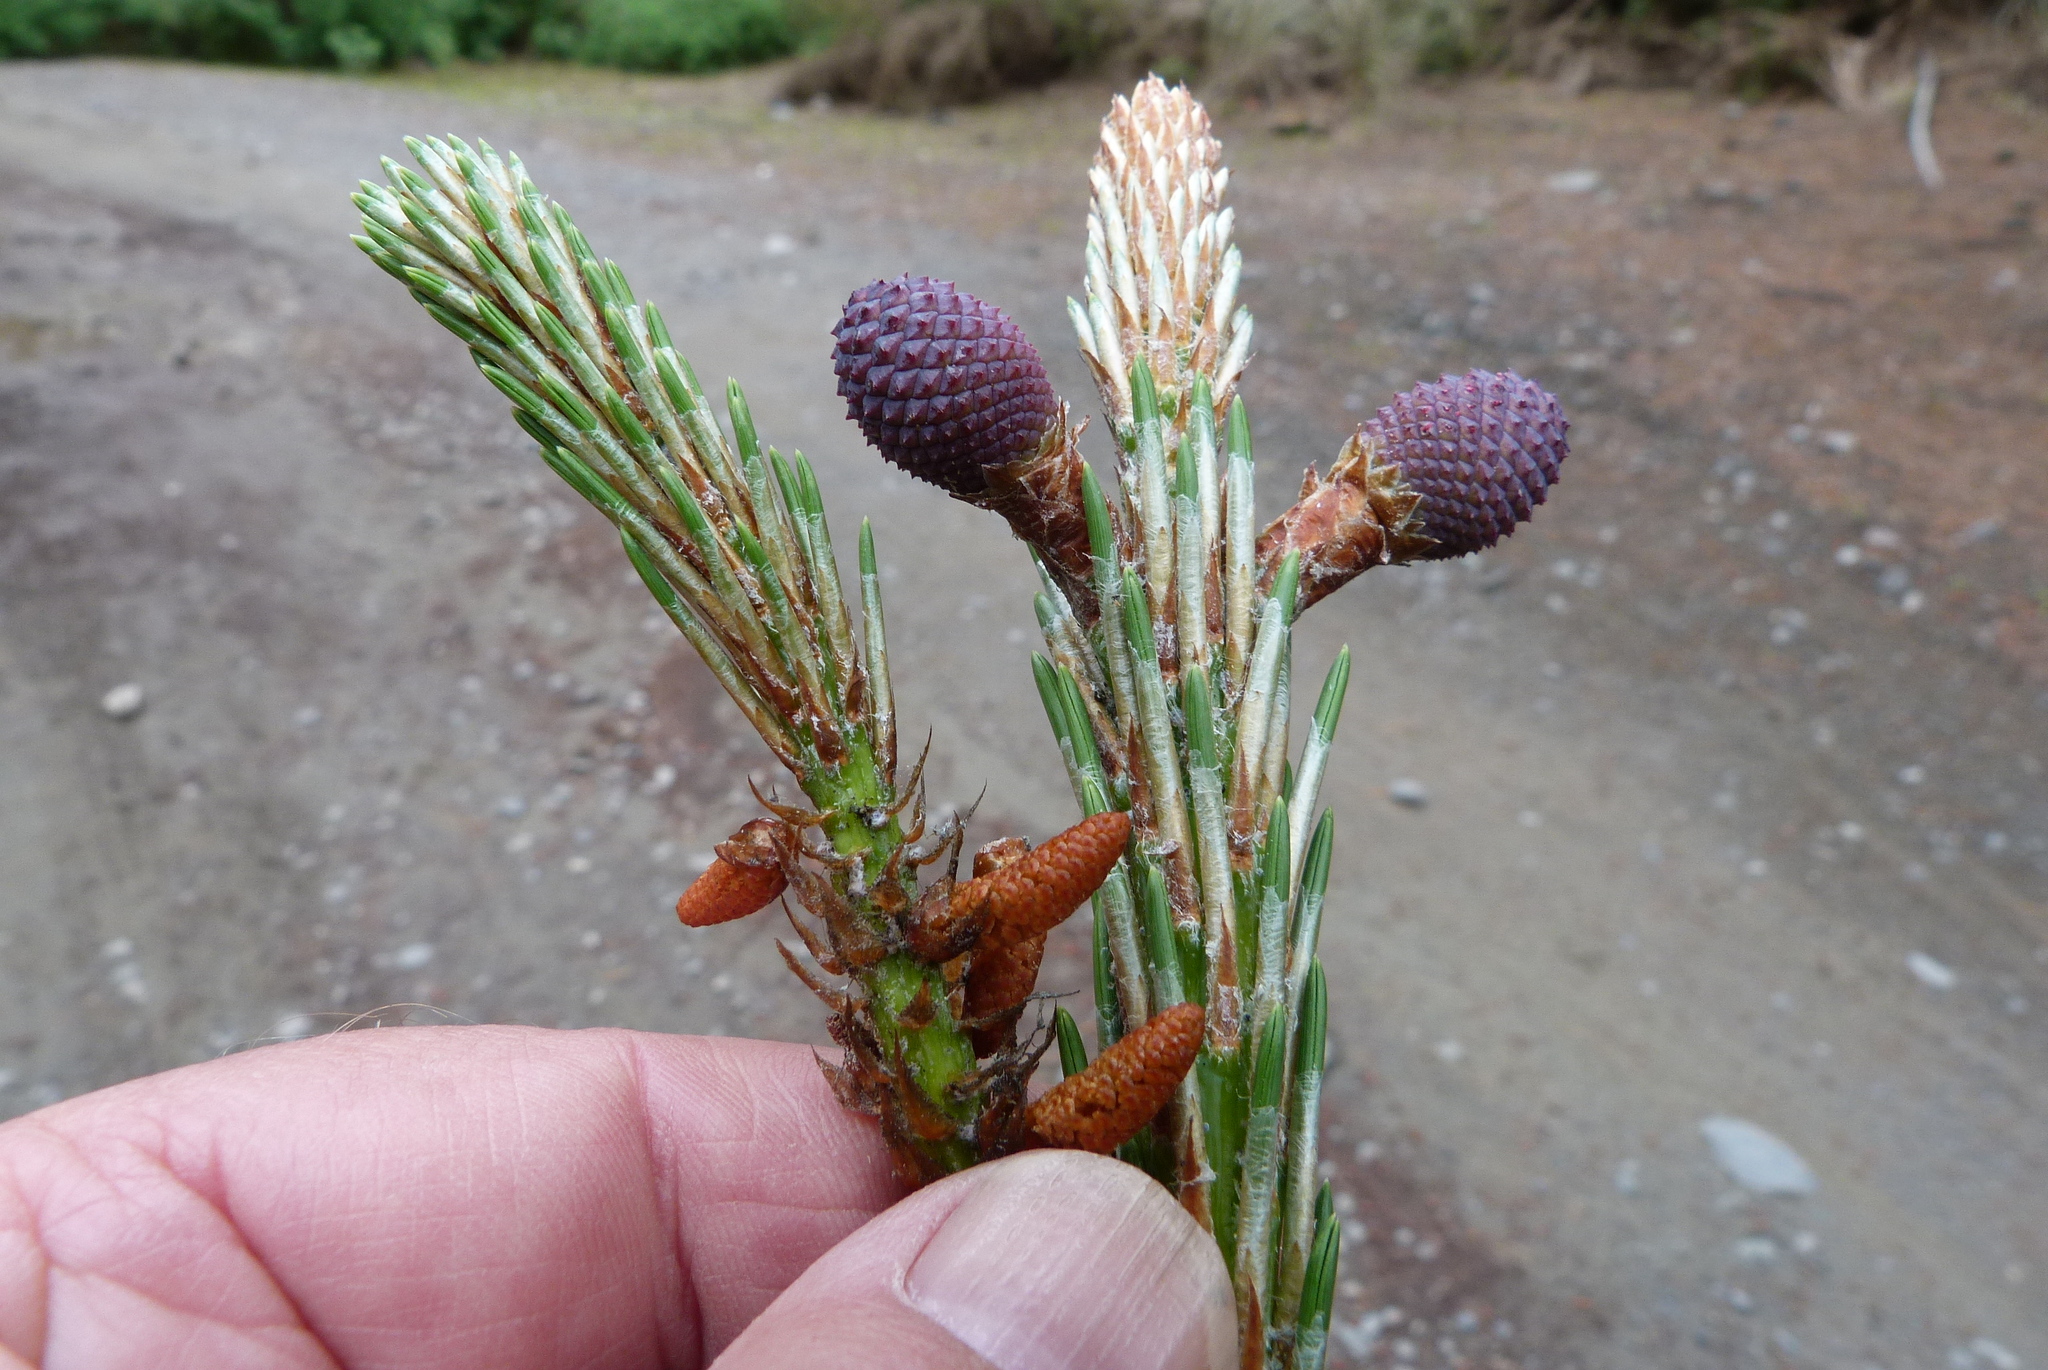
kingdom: Plantae
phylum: Tracheophyta
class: Pinopsida
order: Pinales
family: Pinaceae
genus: Pinus
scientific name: Pinus pinaster
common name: Maritime pine
